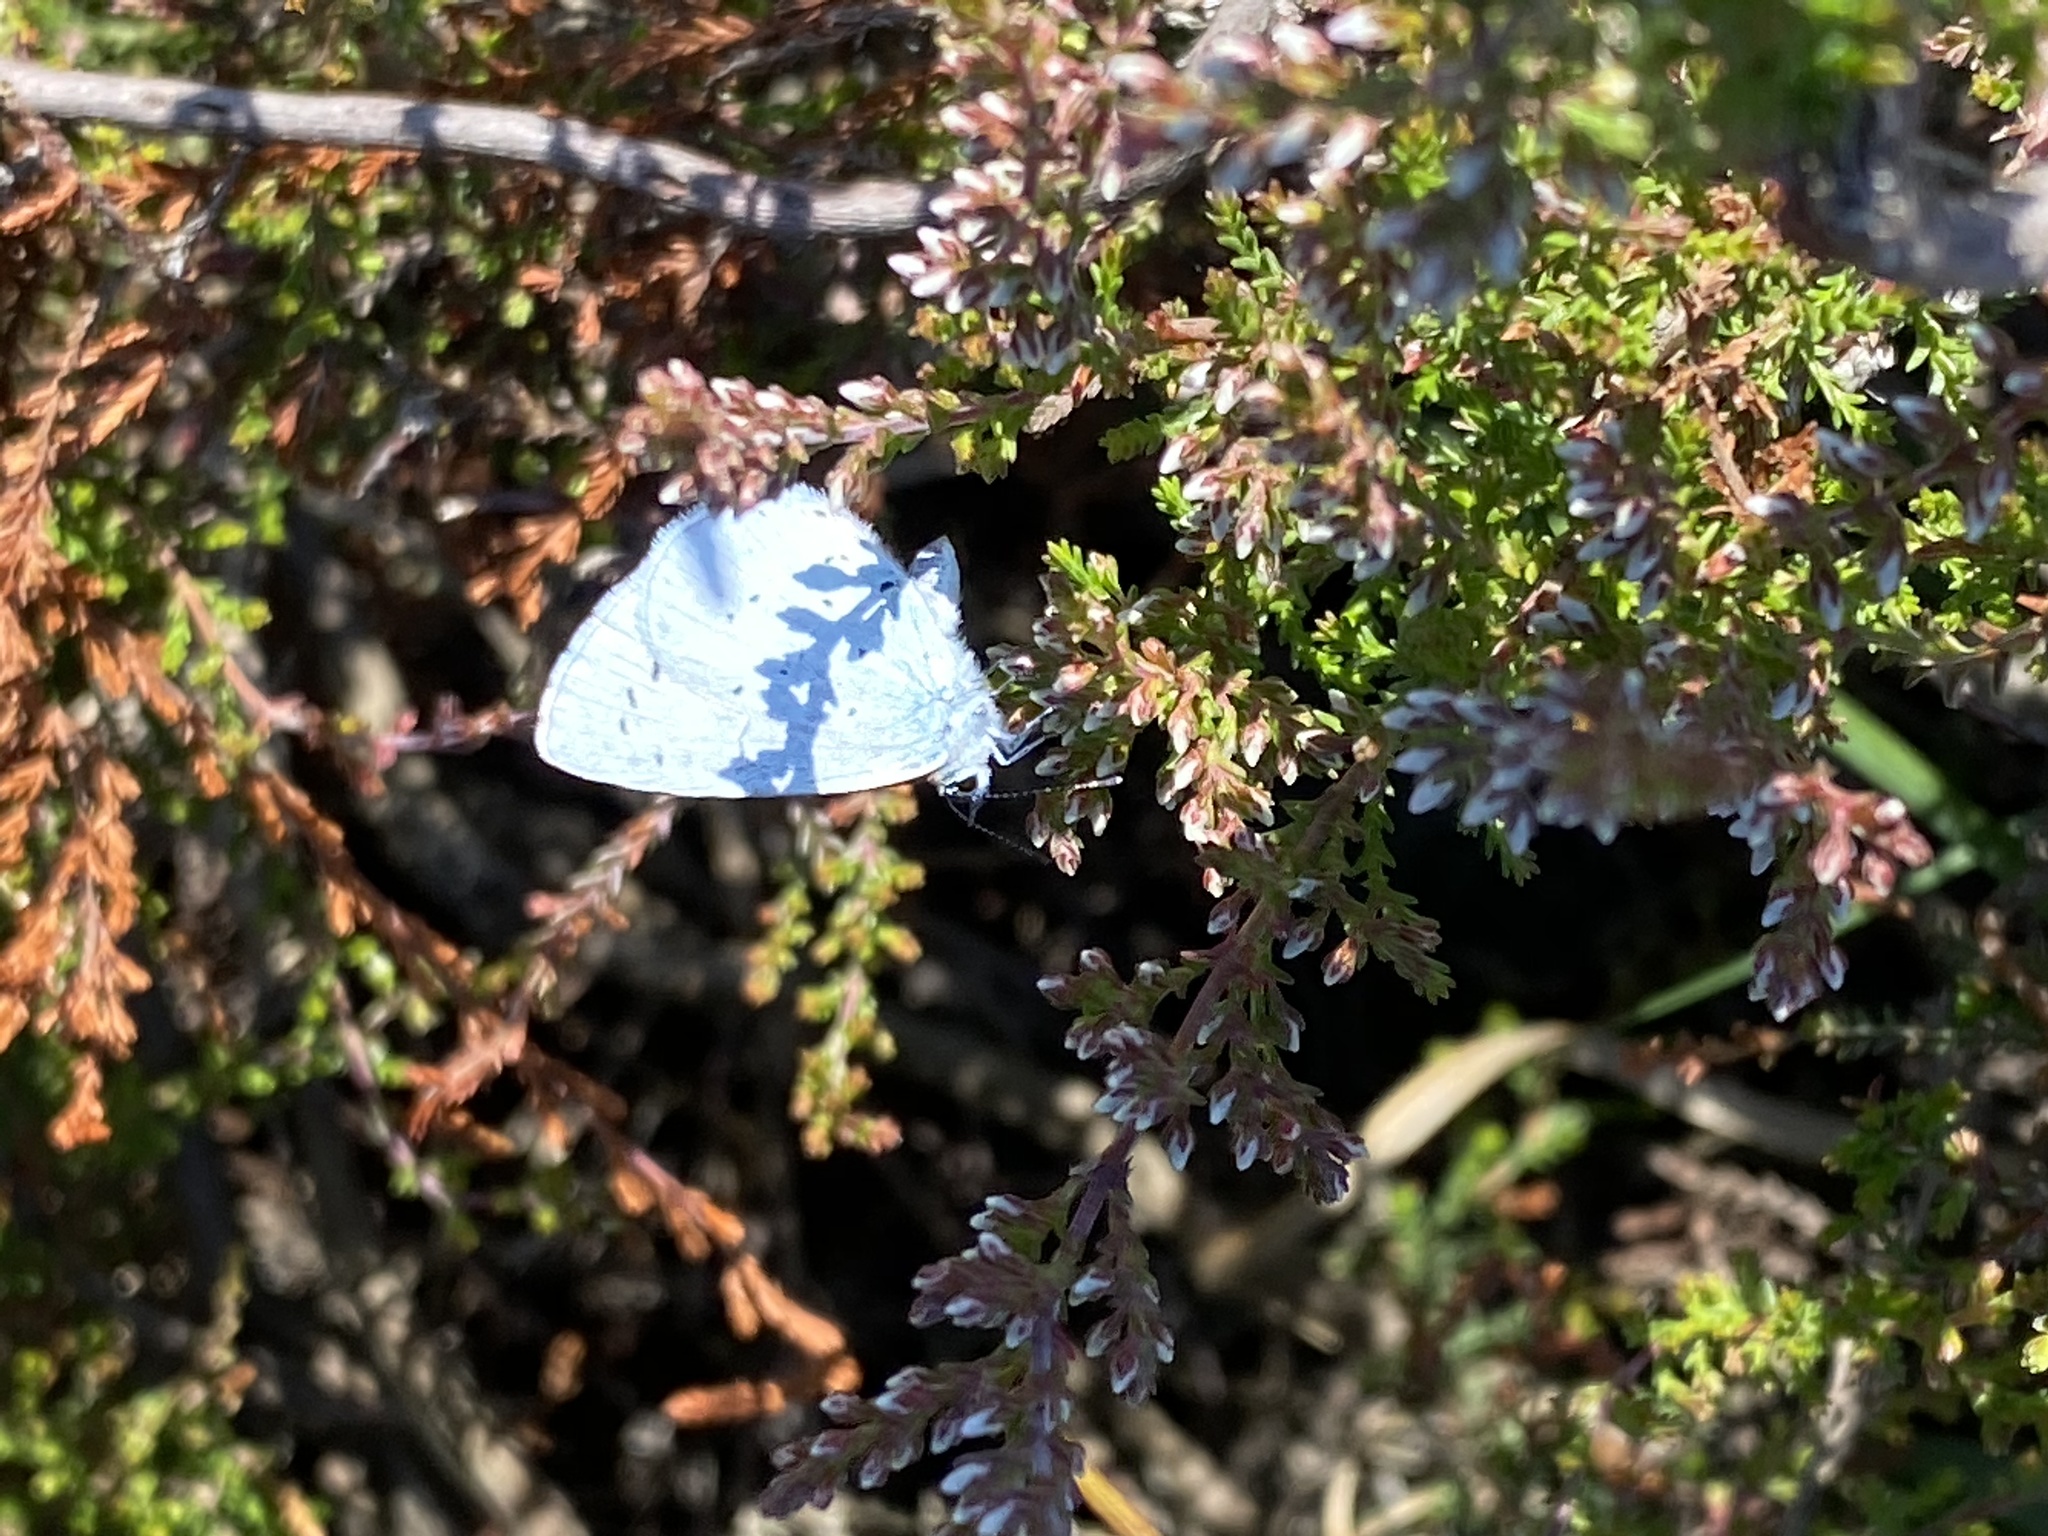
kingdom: Animalia
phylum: Arthropoda
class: Insecta
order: Lepidoptera
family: Lycaenidae
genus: Celastrina
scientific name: Celastrina argiolus
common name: Holly blue
